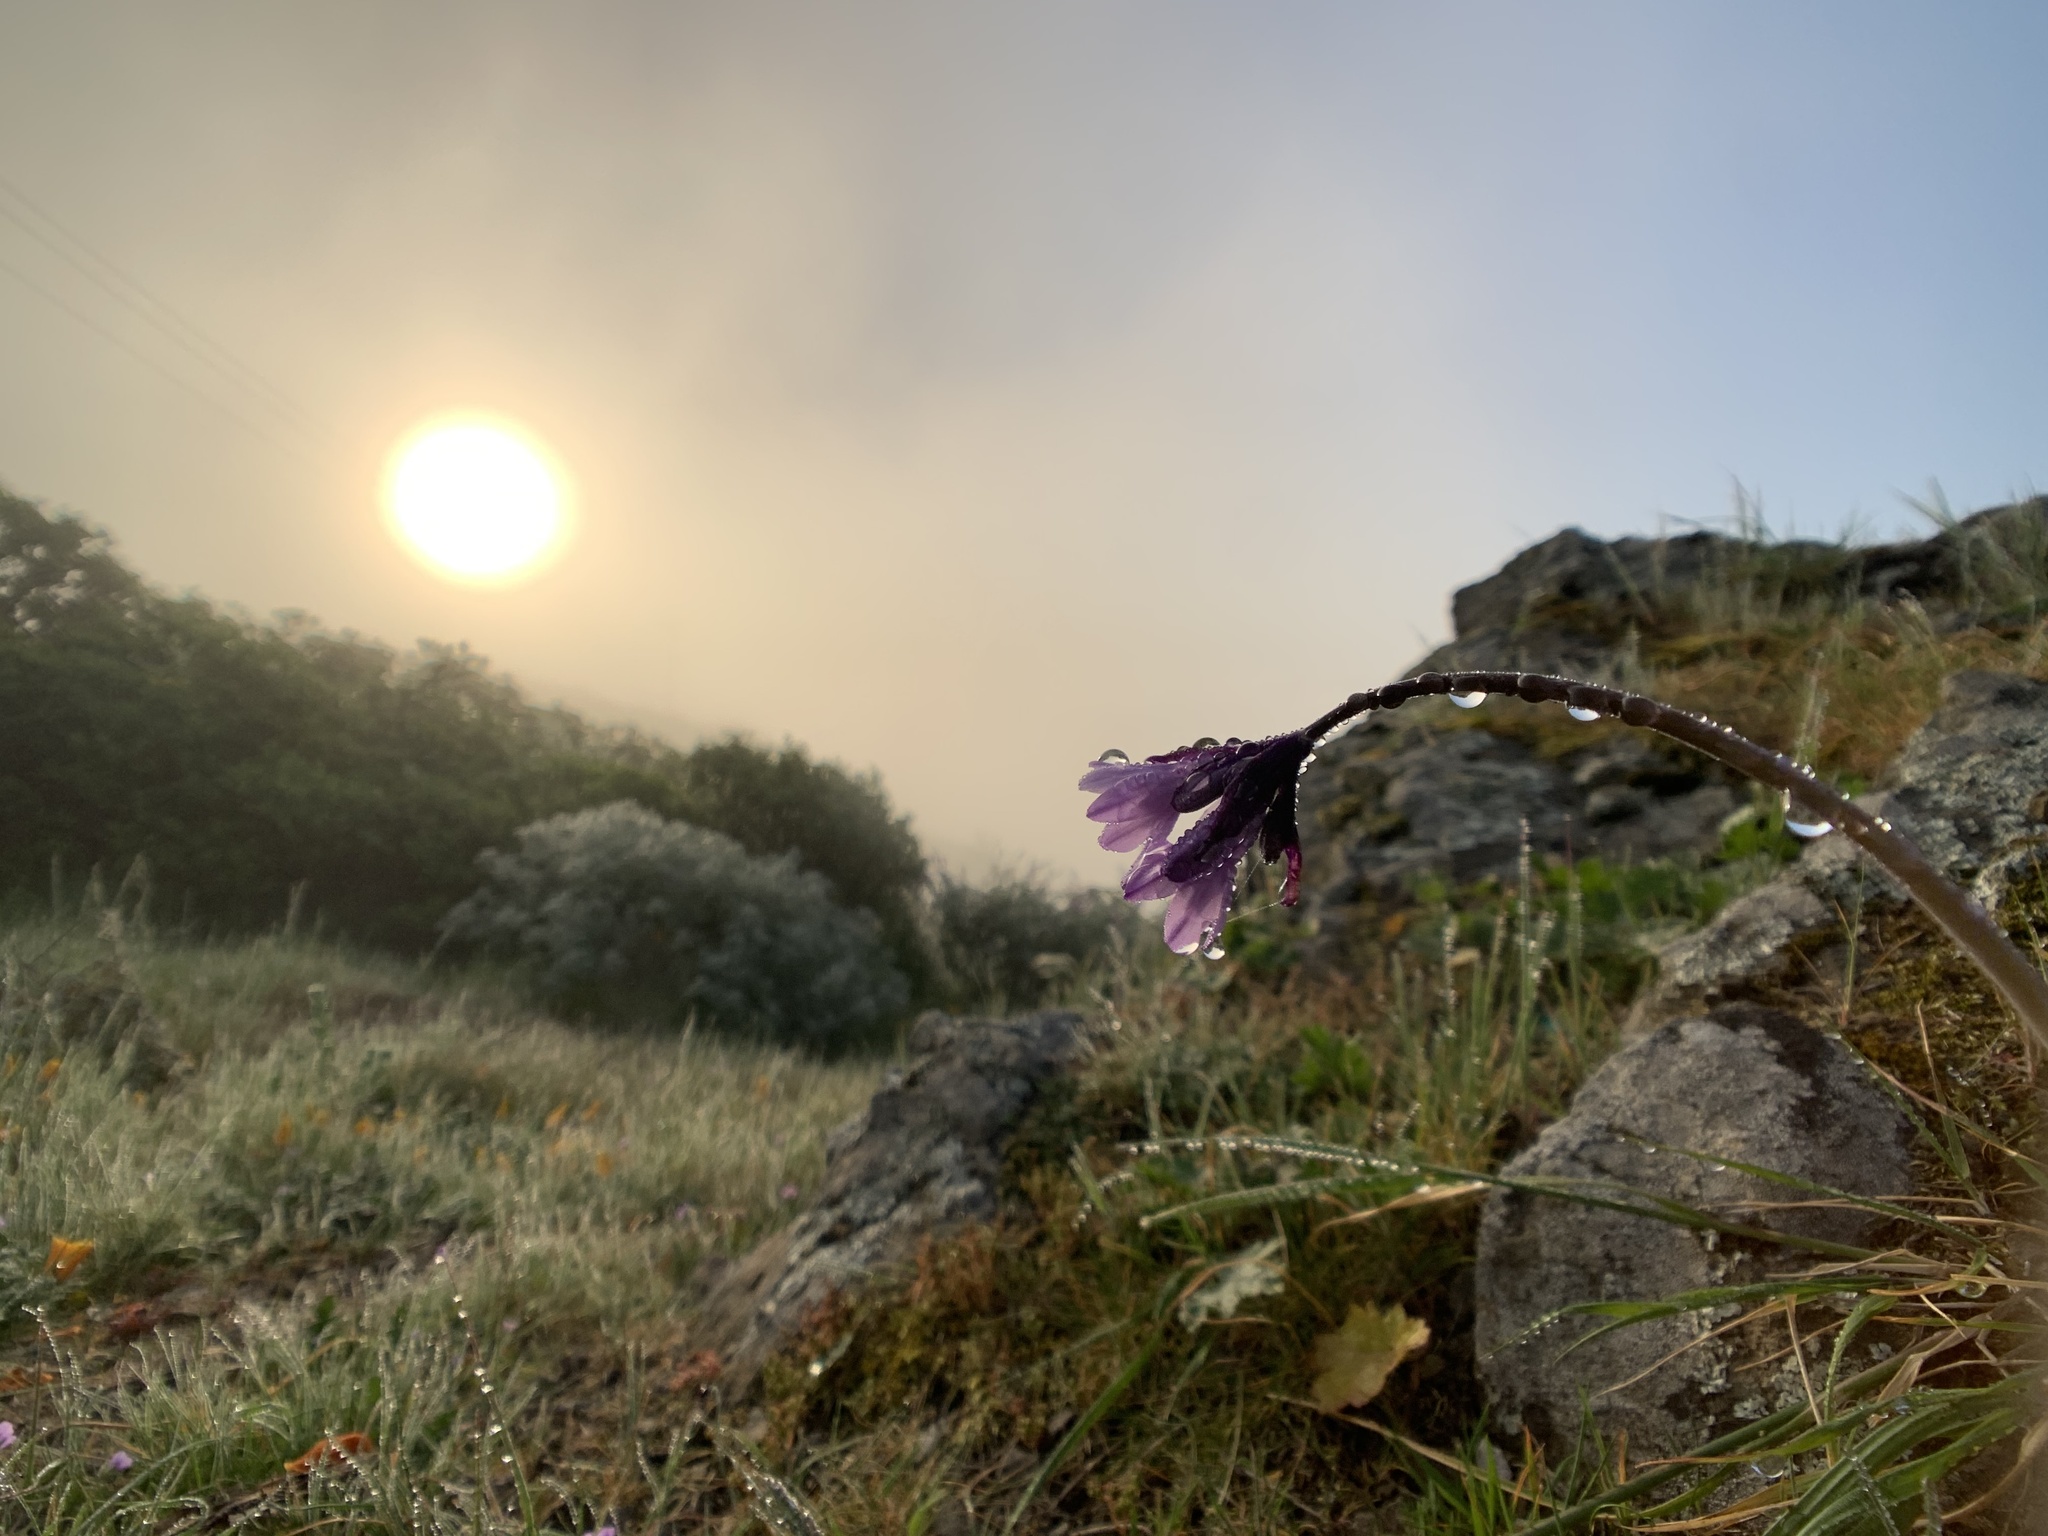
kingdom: Plantae
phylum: Tracheophyta
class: Liliopsida
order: Asparagales
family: Asparagaceae
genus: Dipterostemon
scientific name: Dipterostemon capitatus
